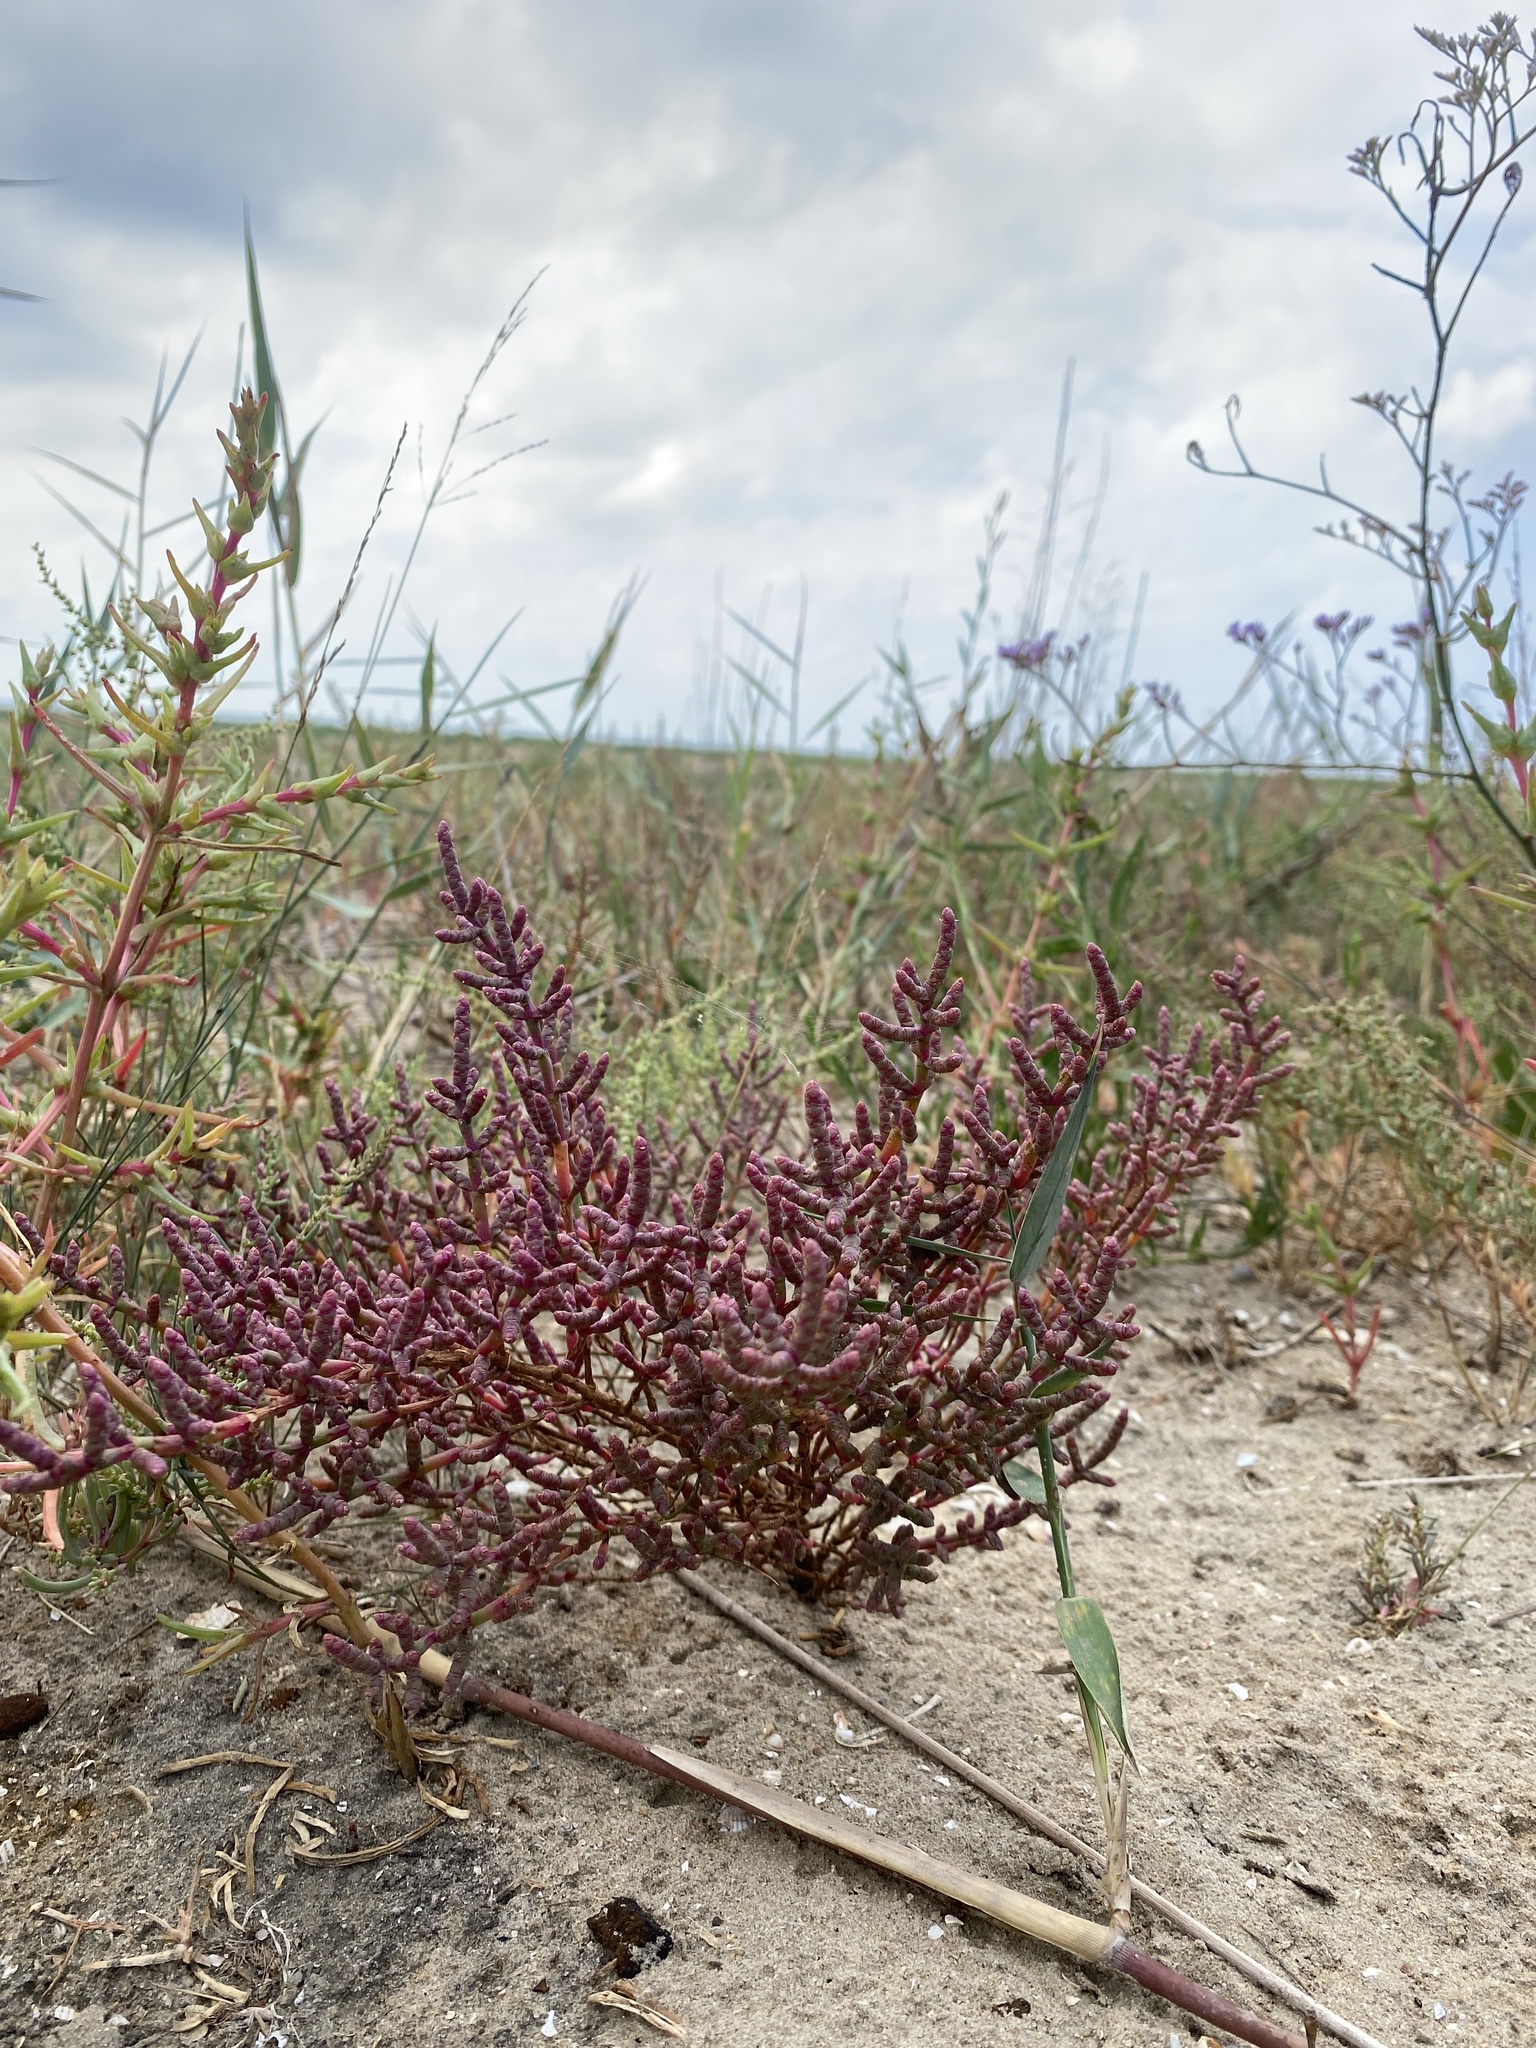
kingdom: Plantae
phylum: Tracheophyta
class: Magnoliopsida
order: Caryophyllales
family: Amaranthaceae
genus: Salicornia
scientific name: Salicornia perennans
